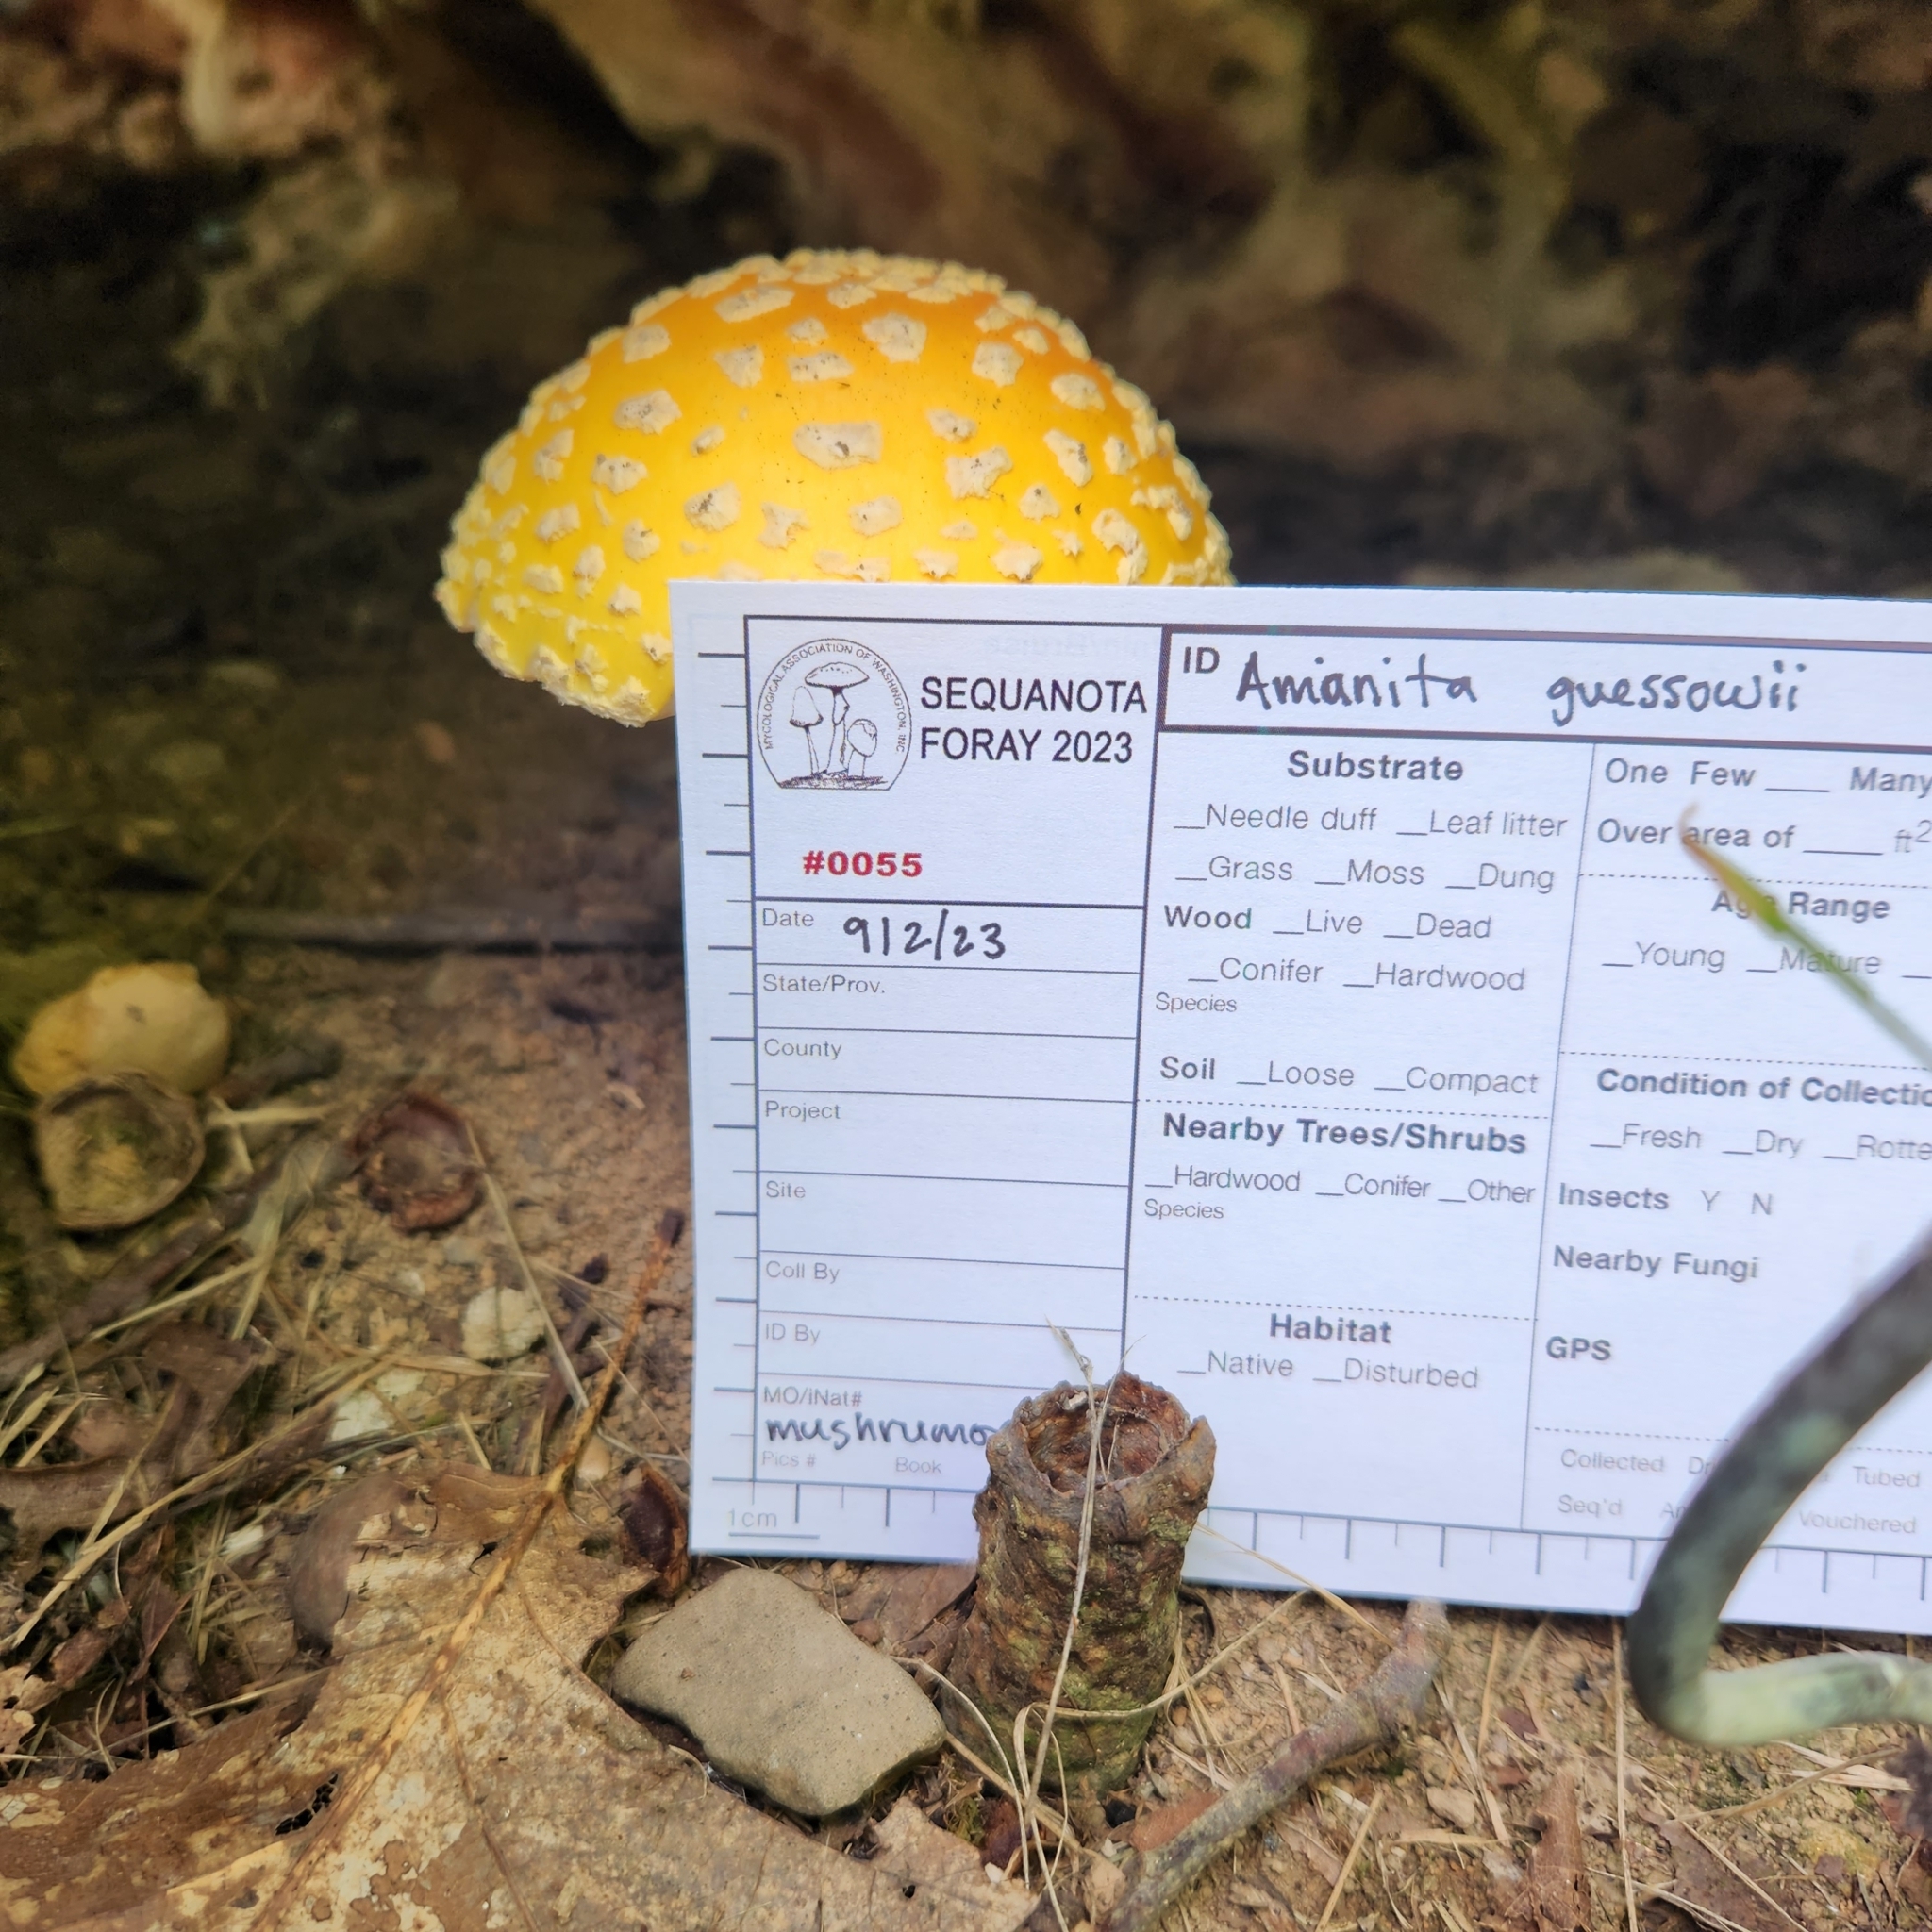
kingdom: Fungi
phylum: Basidiomycota
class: Agaricomycetes
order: Agaricales
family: Amanitaceae
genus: Amanita
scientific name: Amanita muscaria
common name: Fly agaric
